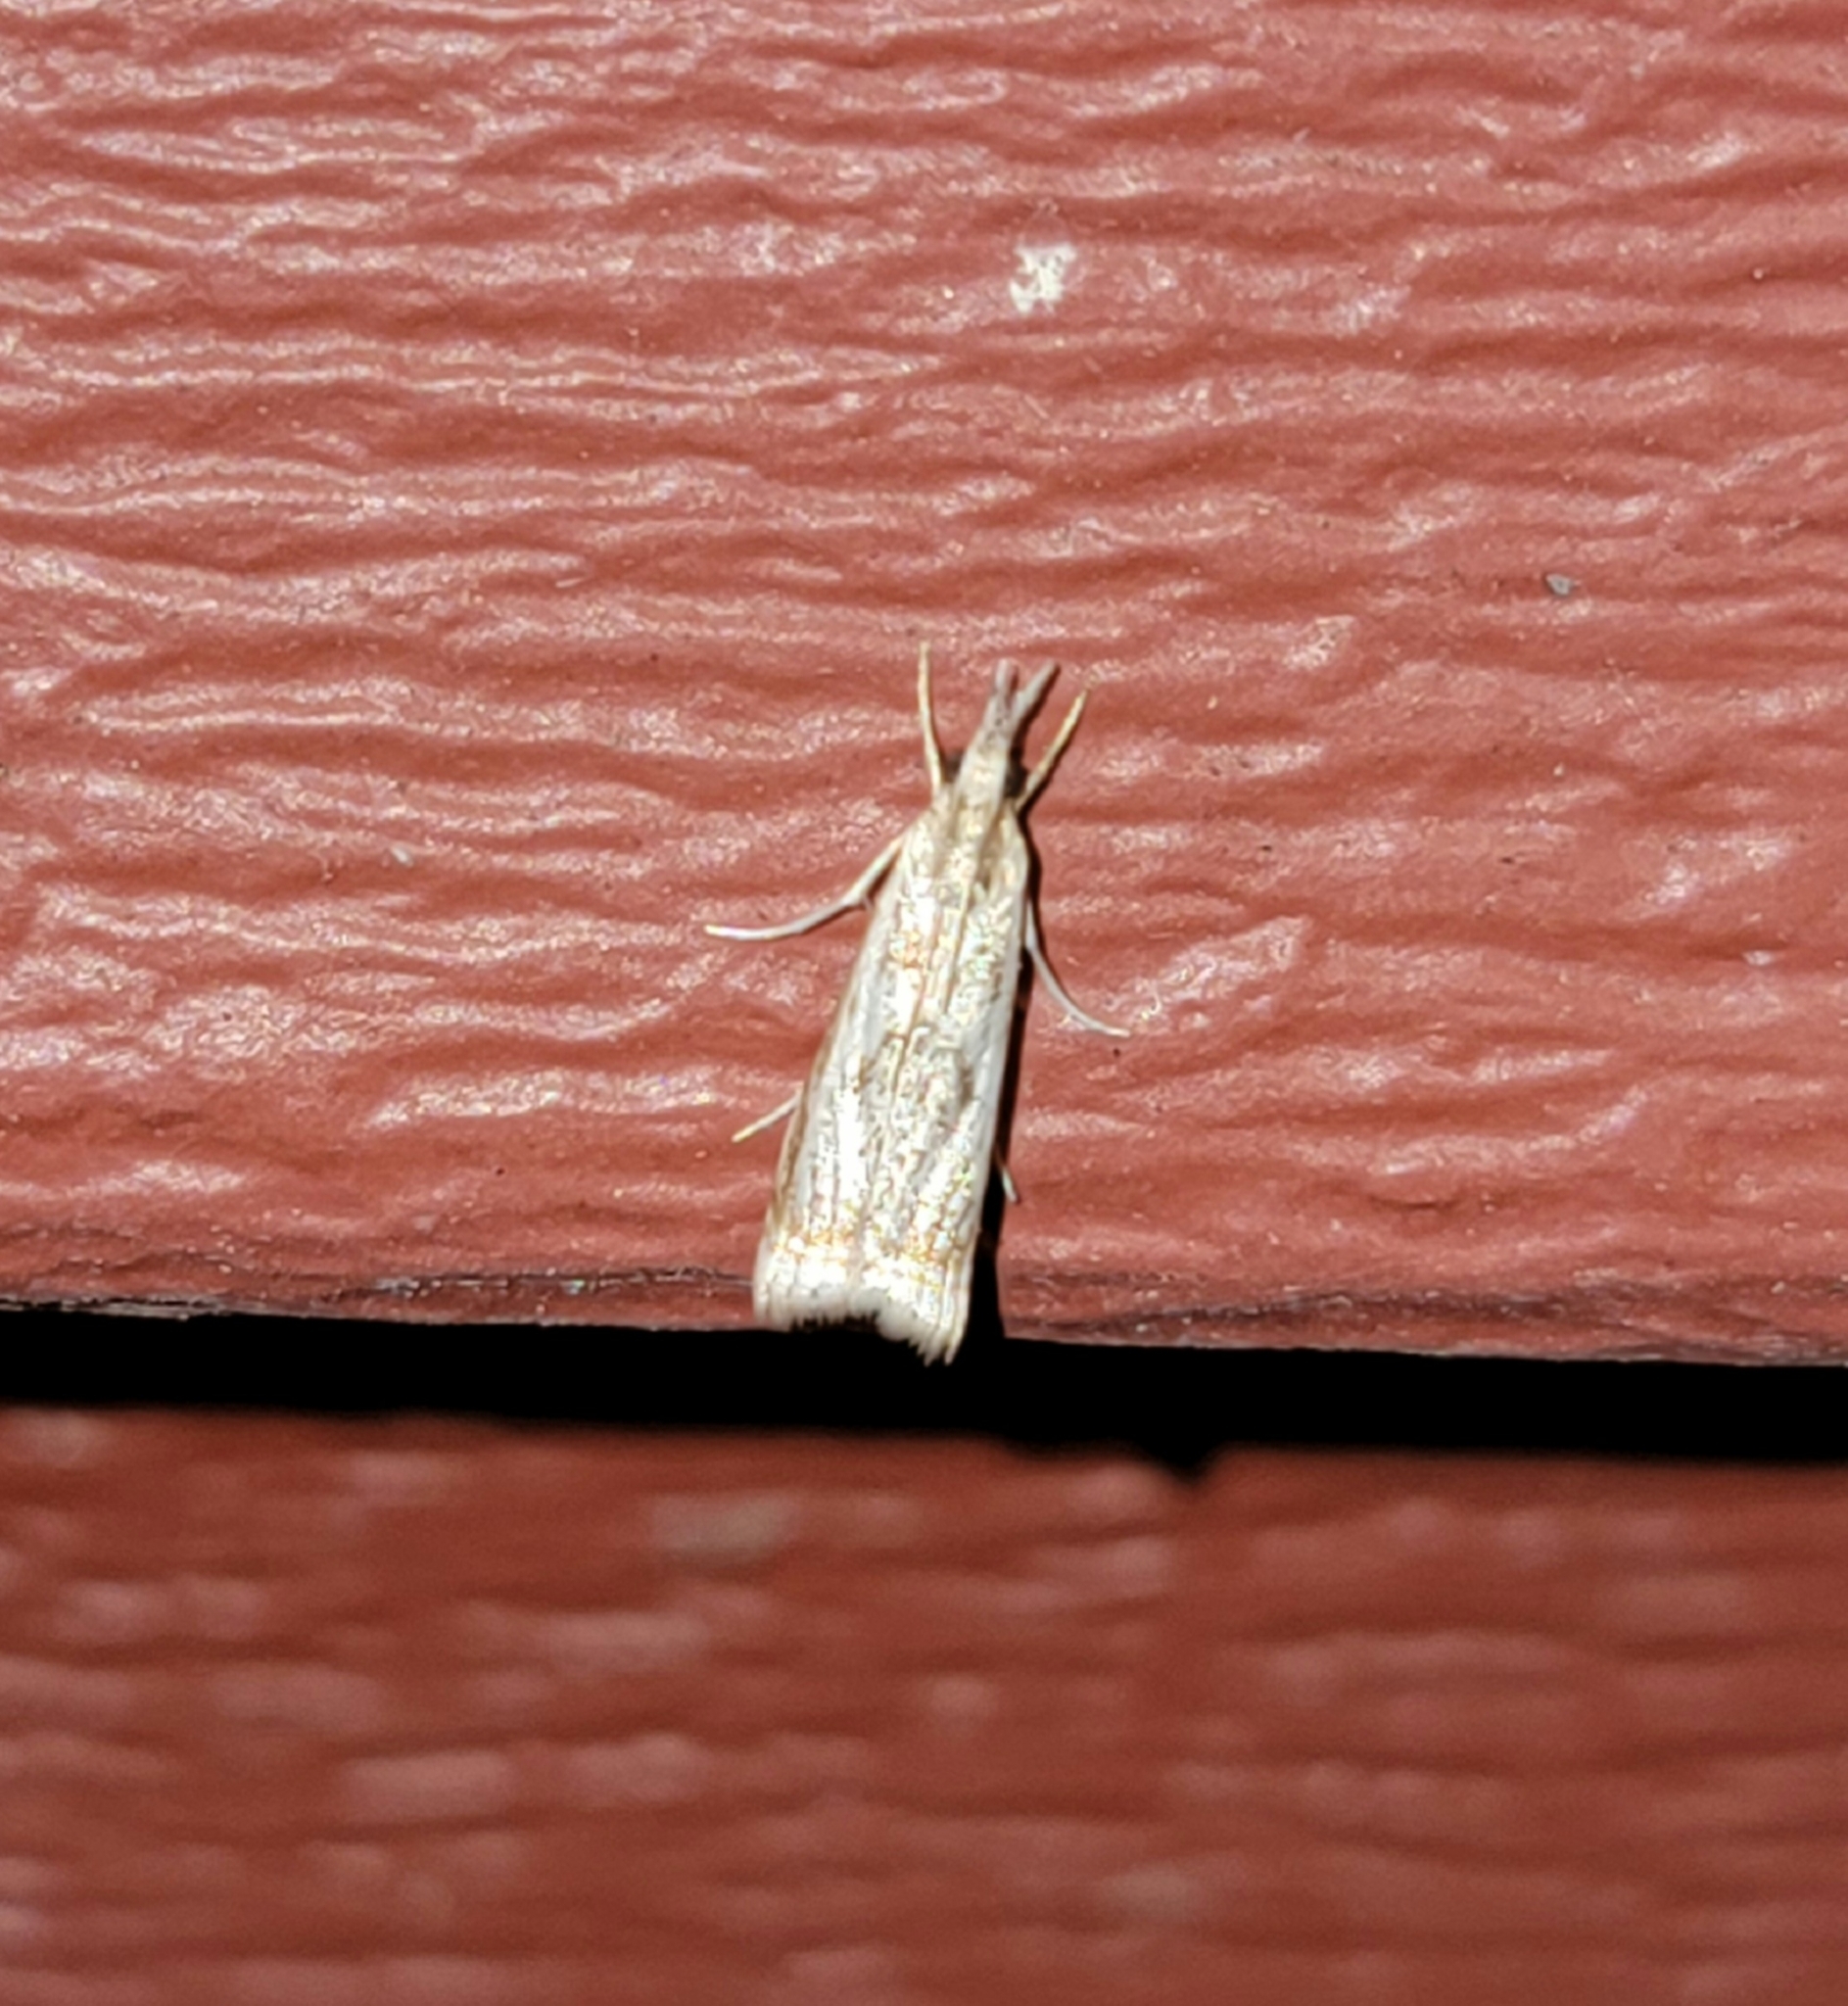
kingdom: Animalia
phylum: Arthropoda
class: Insecta
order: Lepidoptera
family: Crambidae
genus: Microcrambus
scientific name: Microcrambus elegans
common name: Elegant grass-veneer
